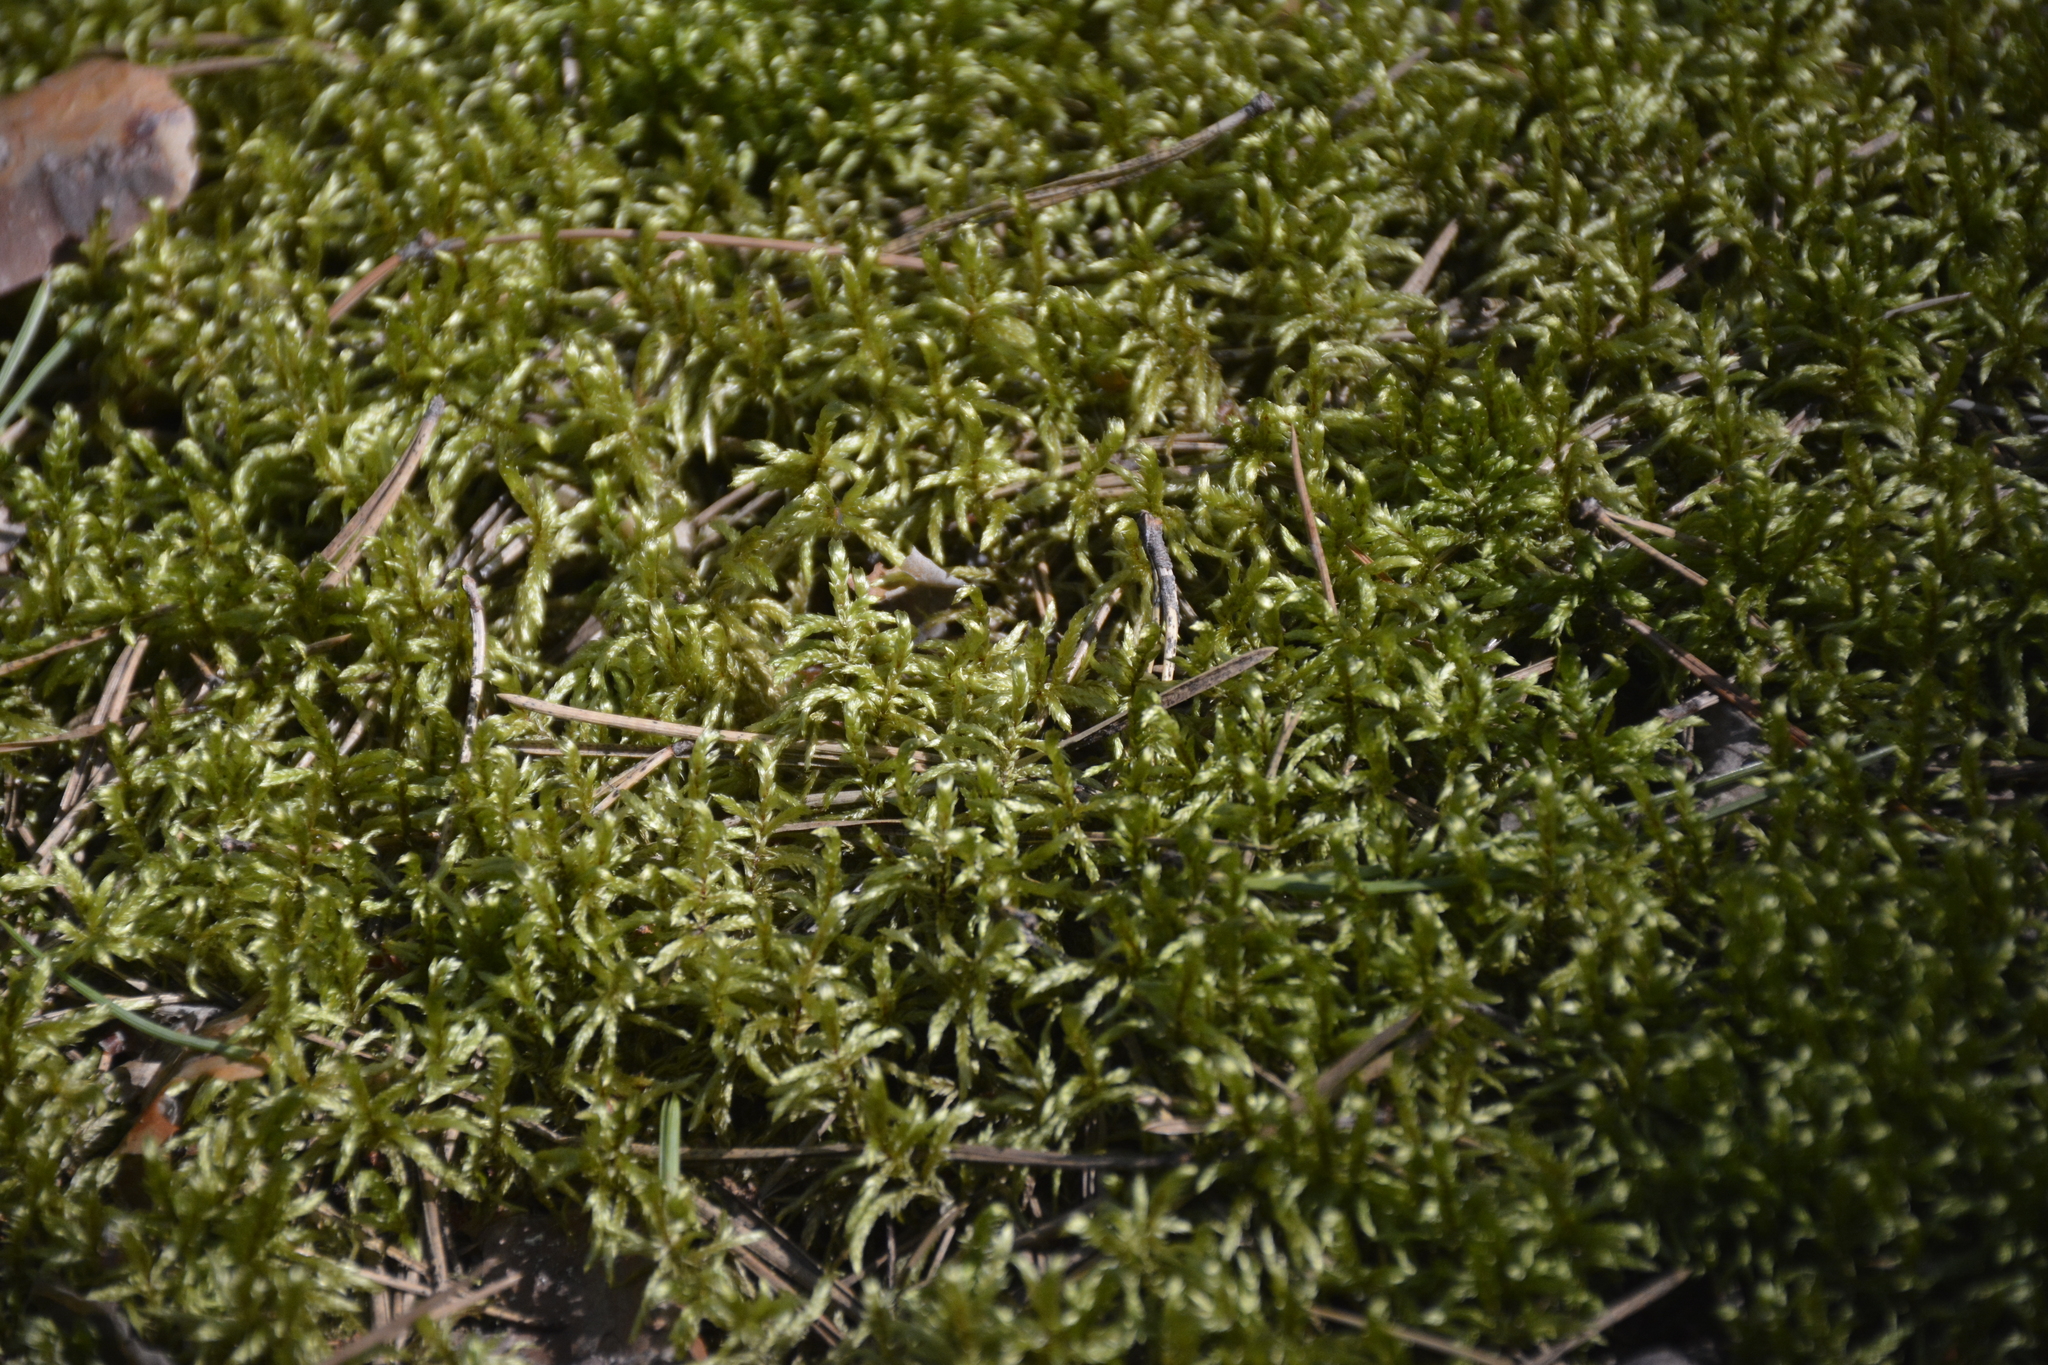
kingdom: Plantae
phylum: Bryophyta
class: Bryopsida
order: Hypnales
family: Hylocomiaceae
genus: Pleurozium
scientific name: Pleurozium schreberi
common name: Red-stemmed feather moss
